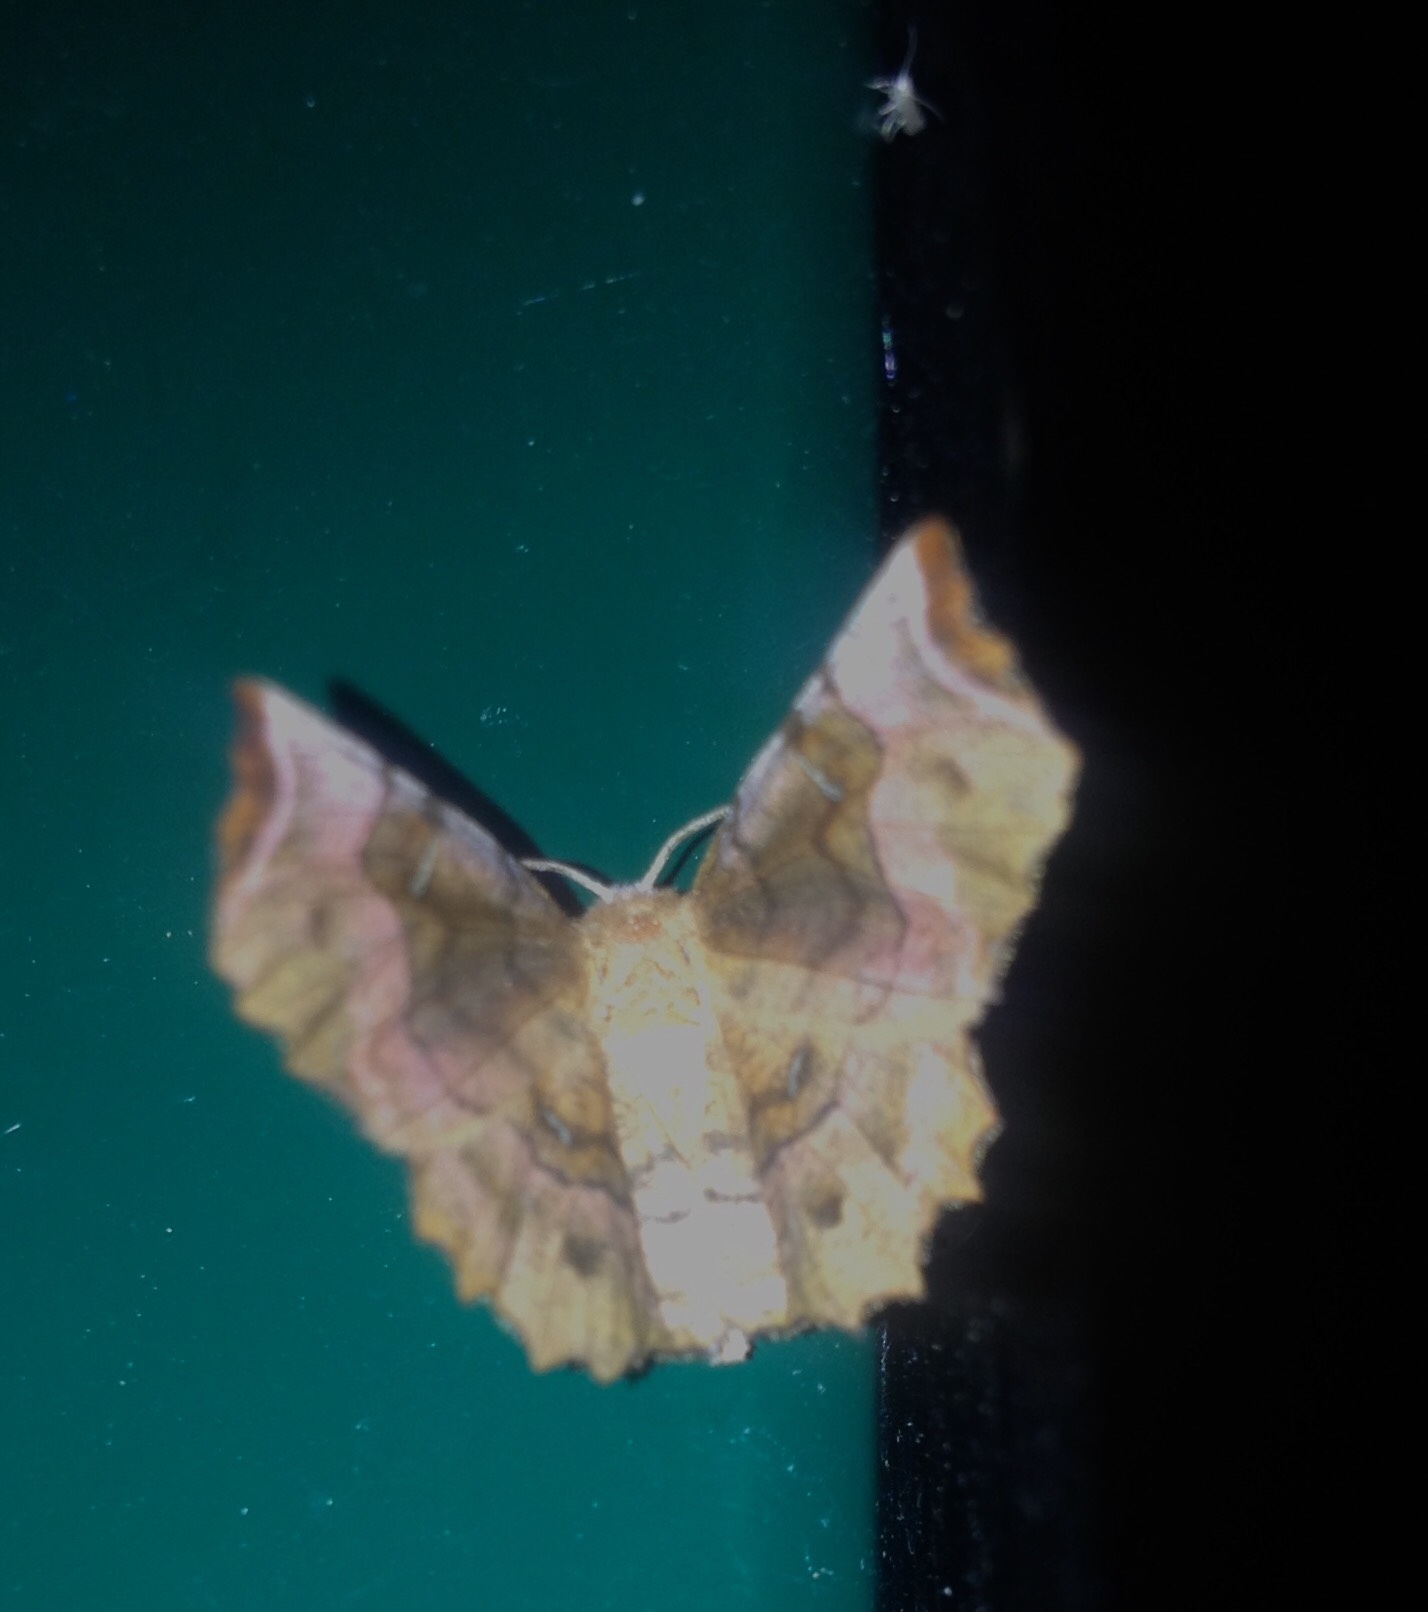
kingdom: Animalia
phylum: Arthropoda
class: Insecta
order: Lepidoptera
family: Geometridae
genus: Selenia
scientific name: Selenia tetralunaria
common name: Purple thorn
